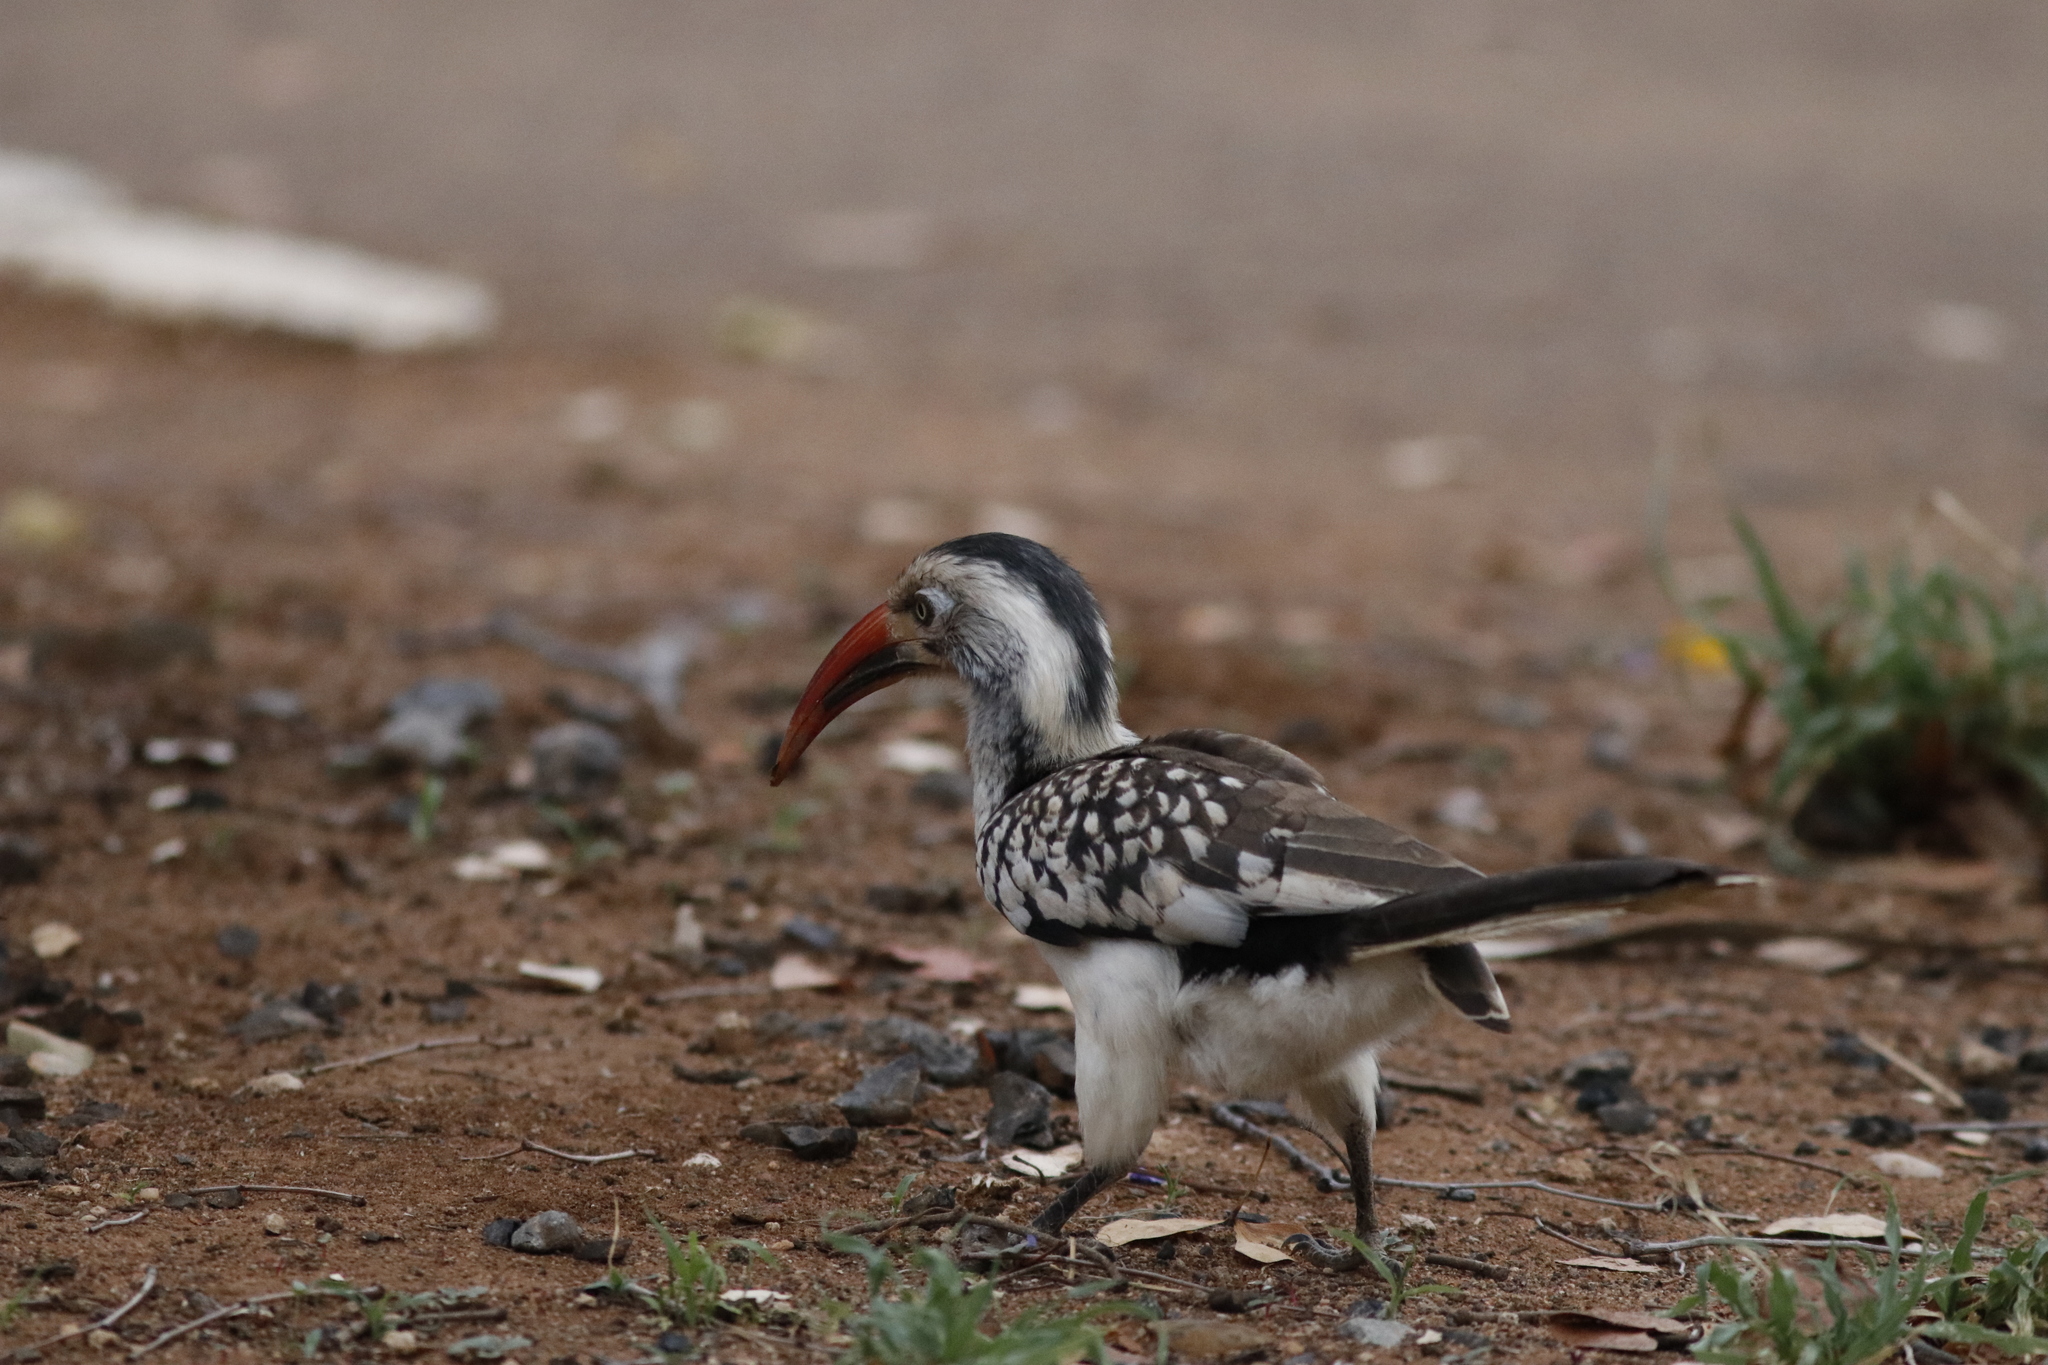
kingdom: Animalia
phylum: Chordata
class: Aves
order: Bucerotiformes
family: Bucerotidae
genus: Tockus
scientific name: Tockus rufirostris
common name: Southern red-billed hornbill
